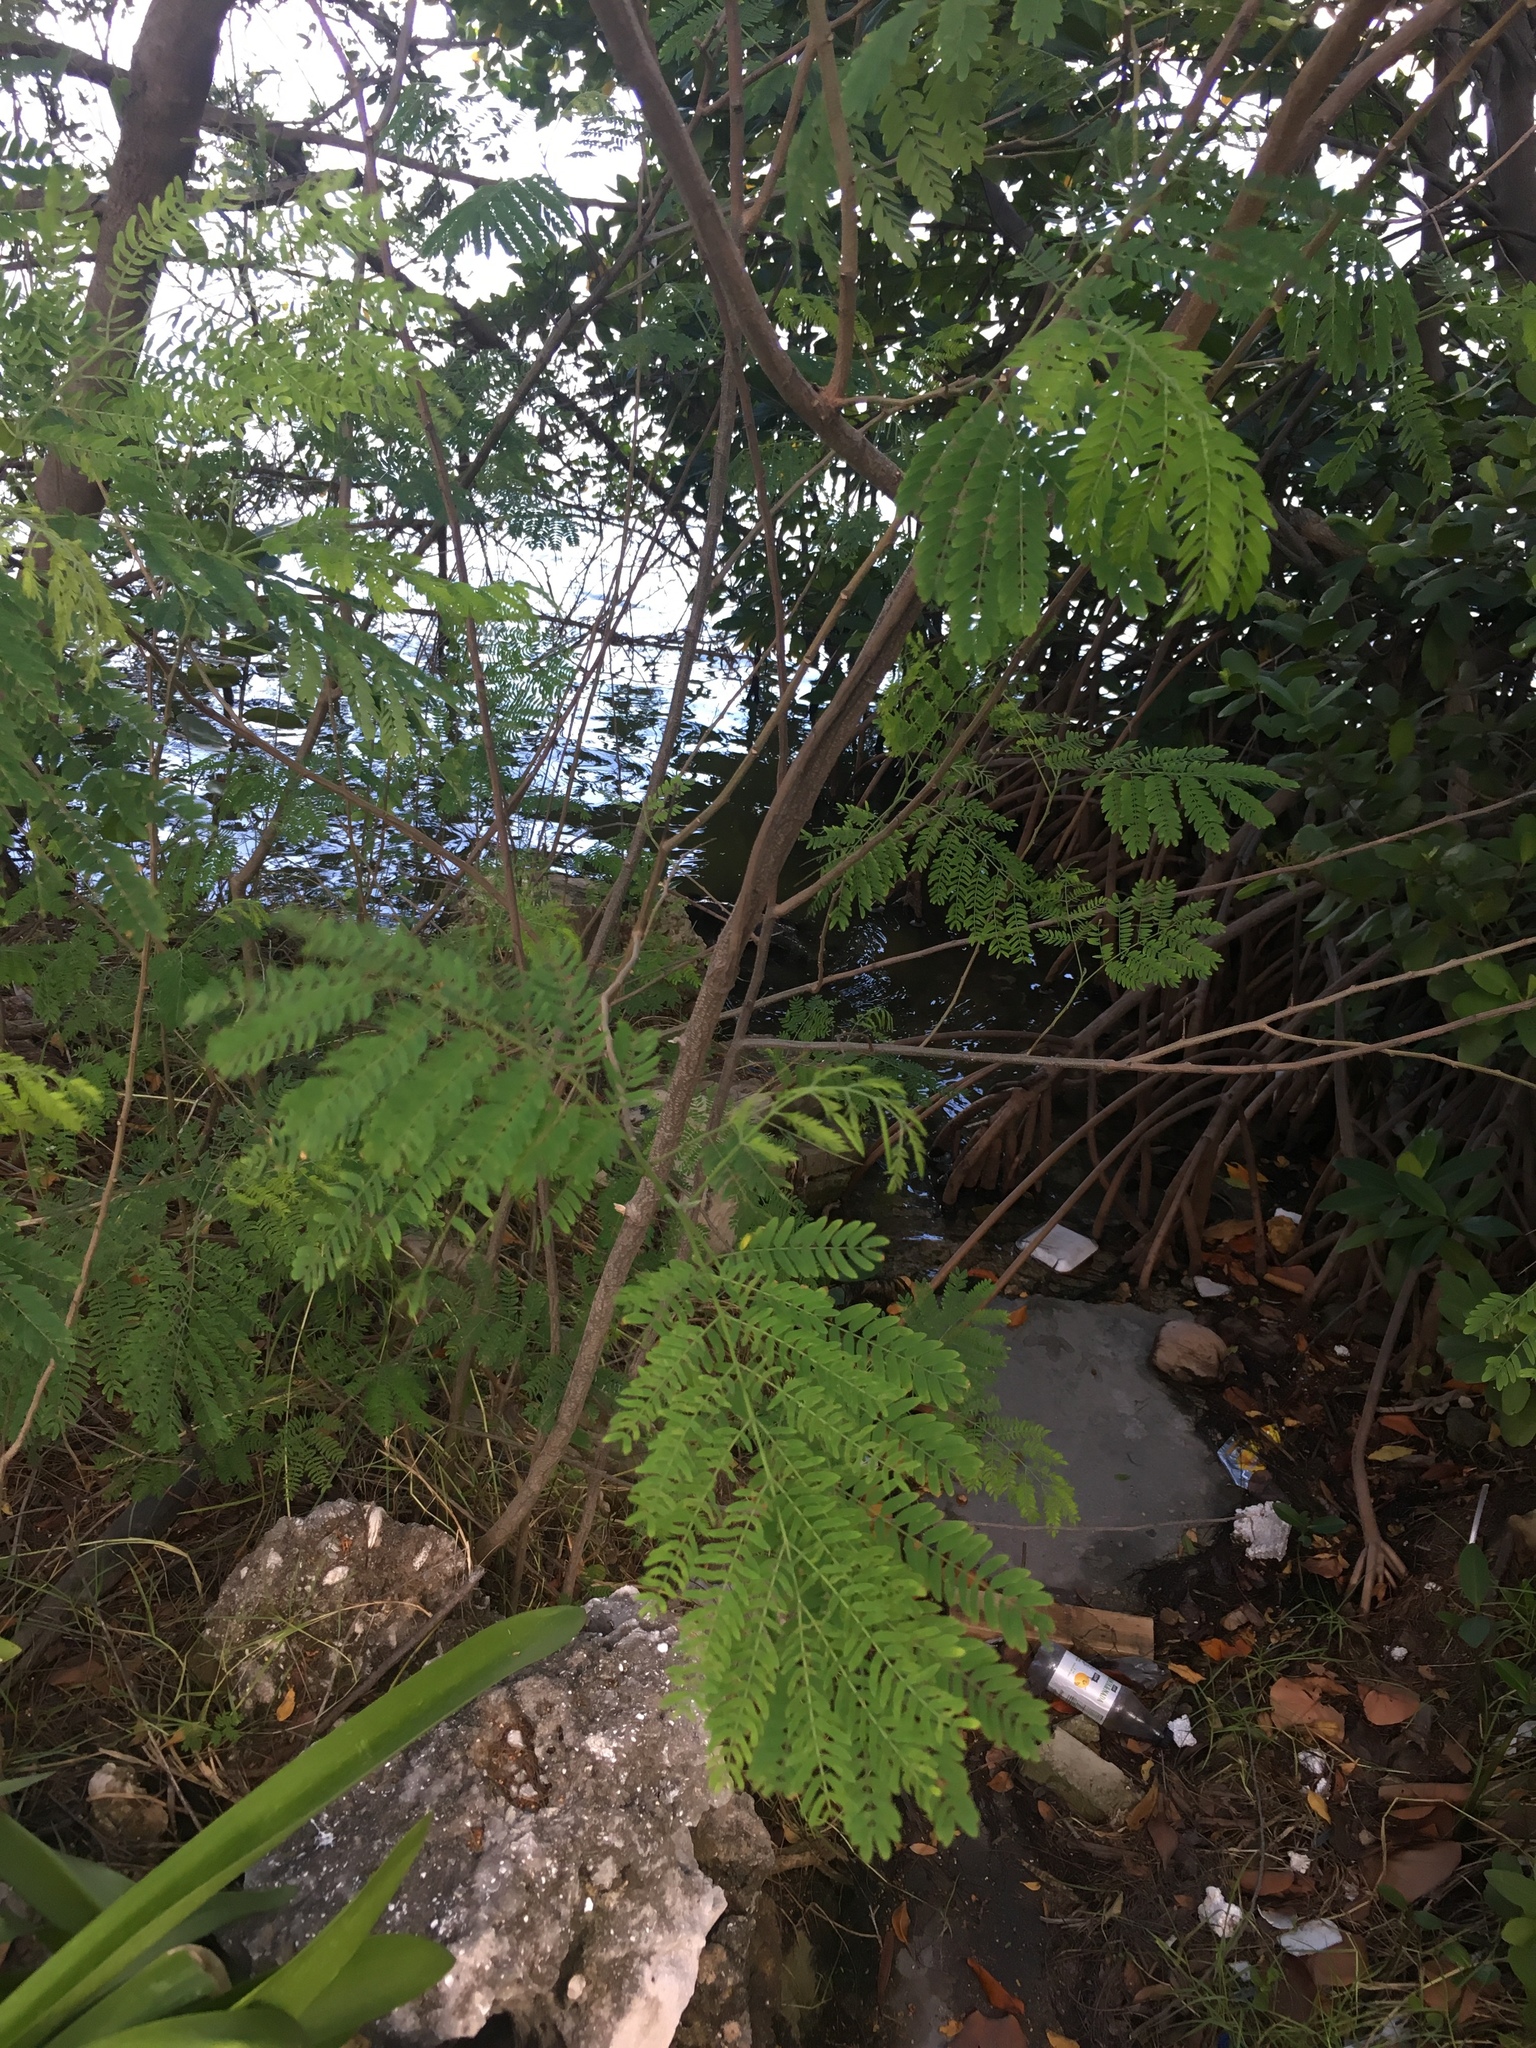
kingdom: Plantae
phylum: Tracheophyta
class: Magnoliopsida
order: Fabales
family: Fabaceae
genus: Leucaena
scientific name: Leucaena leucocephala
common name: White leadtree
